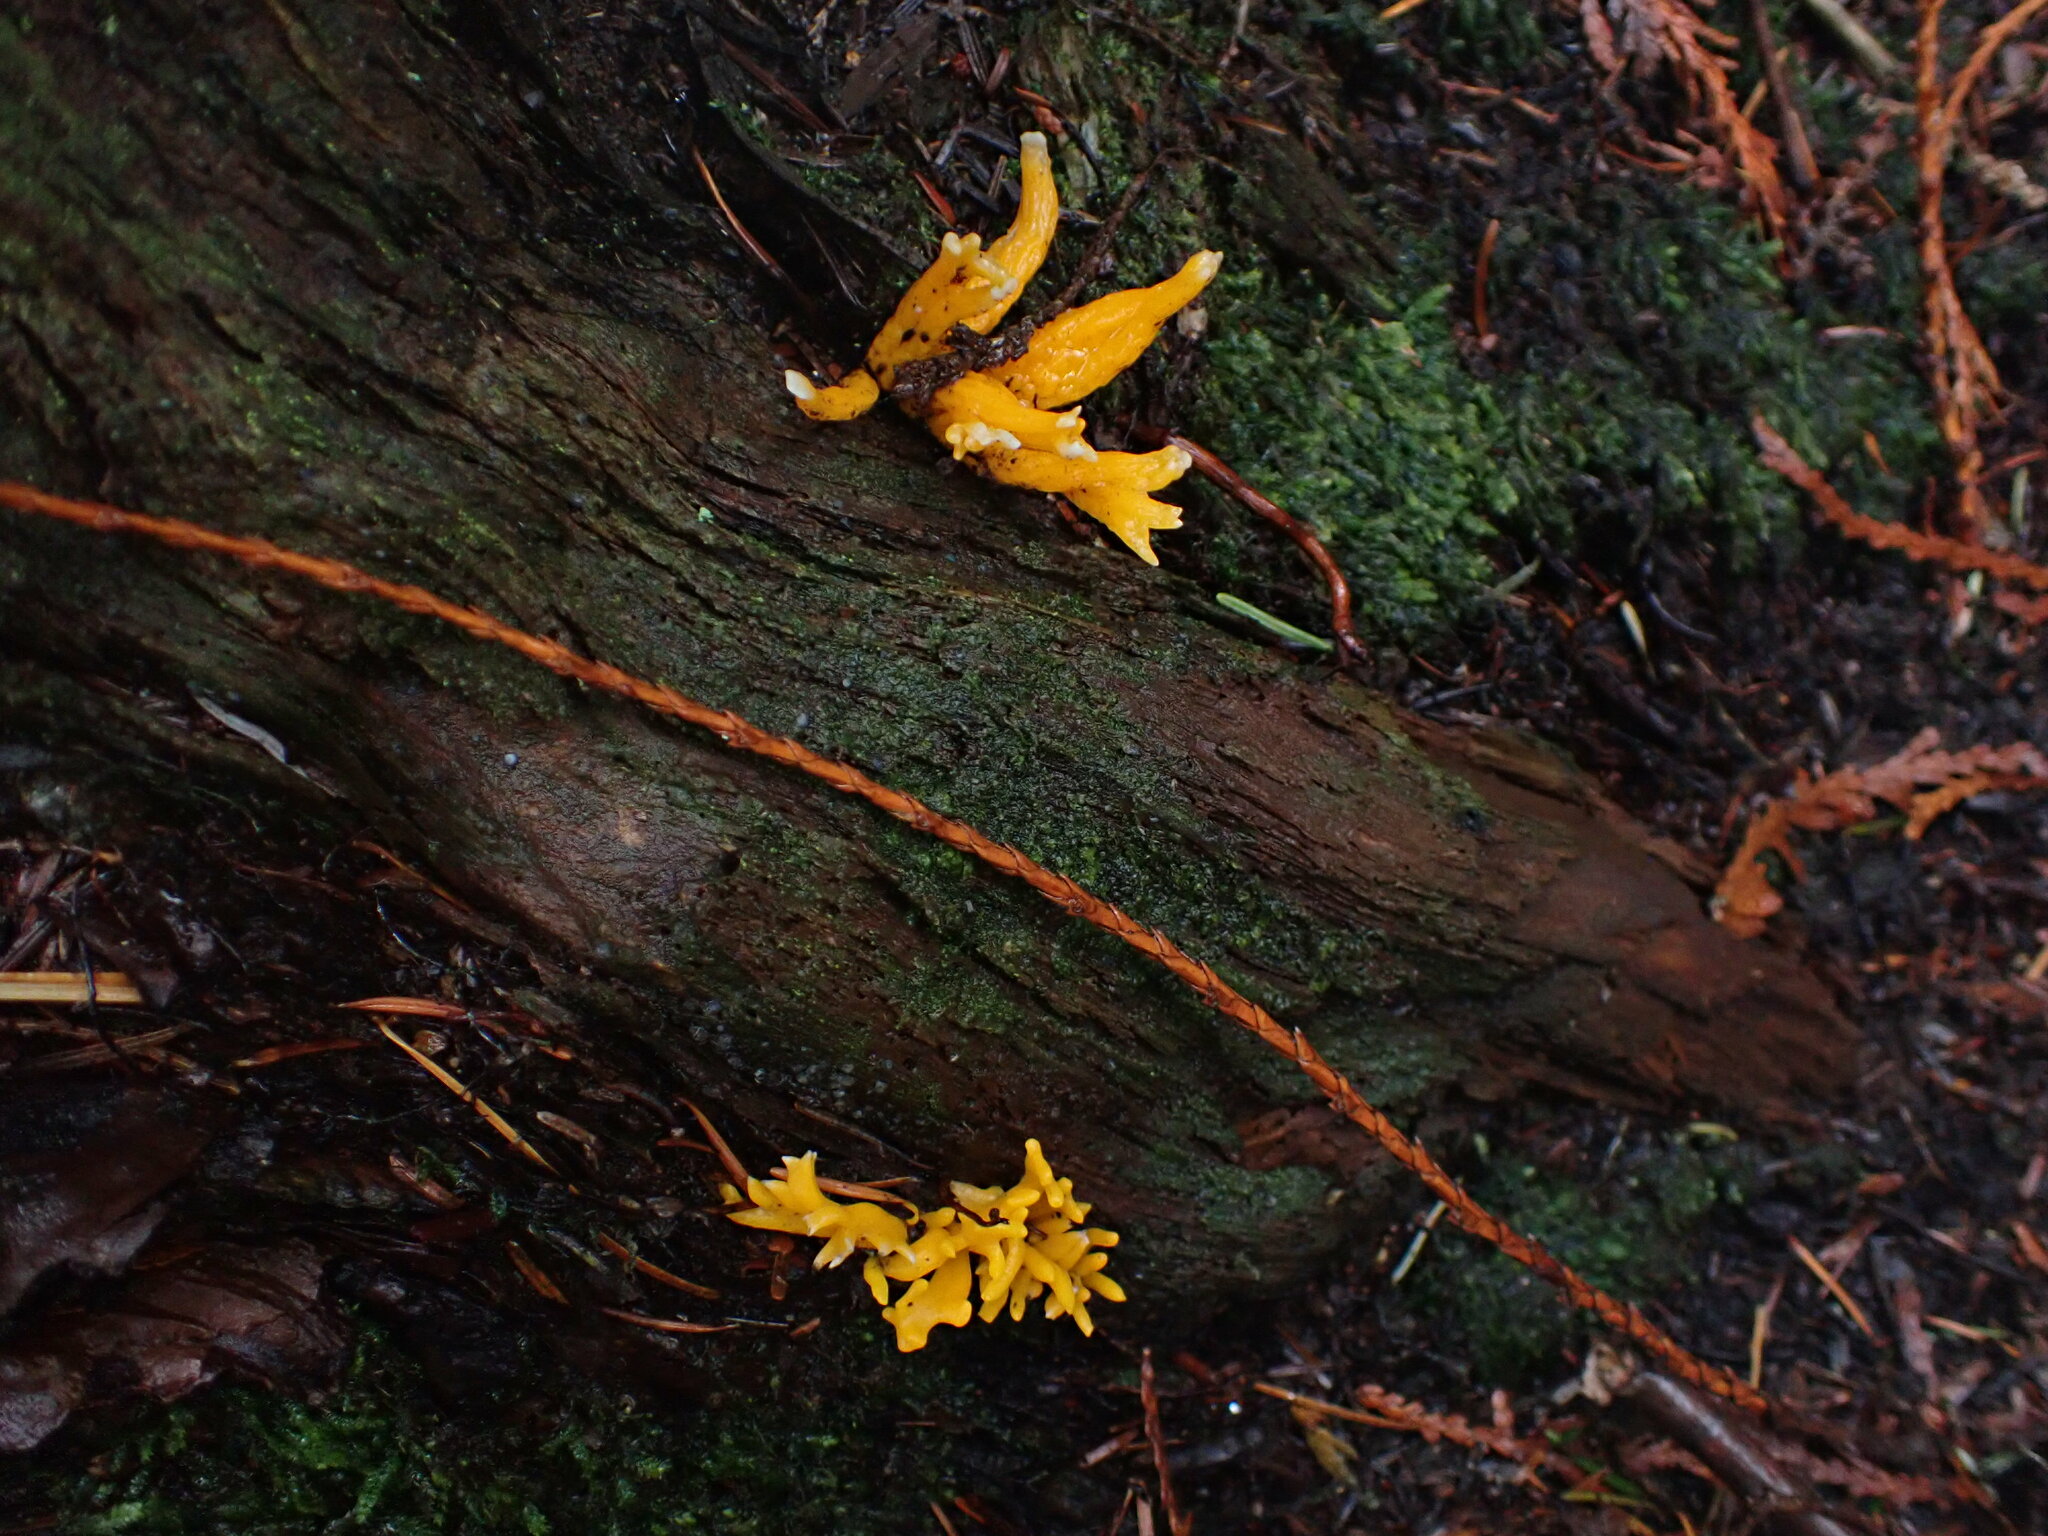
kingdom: Fungi
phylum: Basidiomycota
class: Dacrymycetes
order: Dacrymycetales
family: Dacrymycetaceae
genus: Calocera
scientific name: Calocera viscosa
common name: Yellow stagshorn
